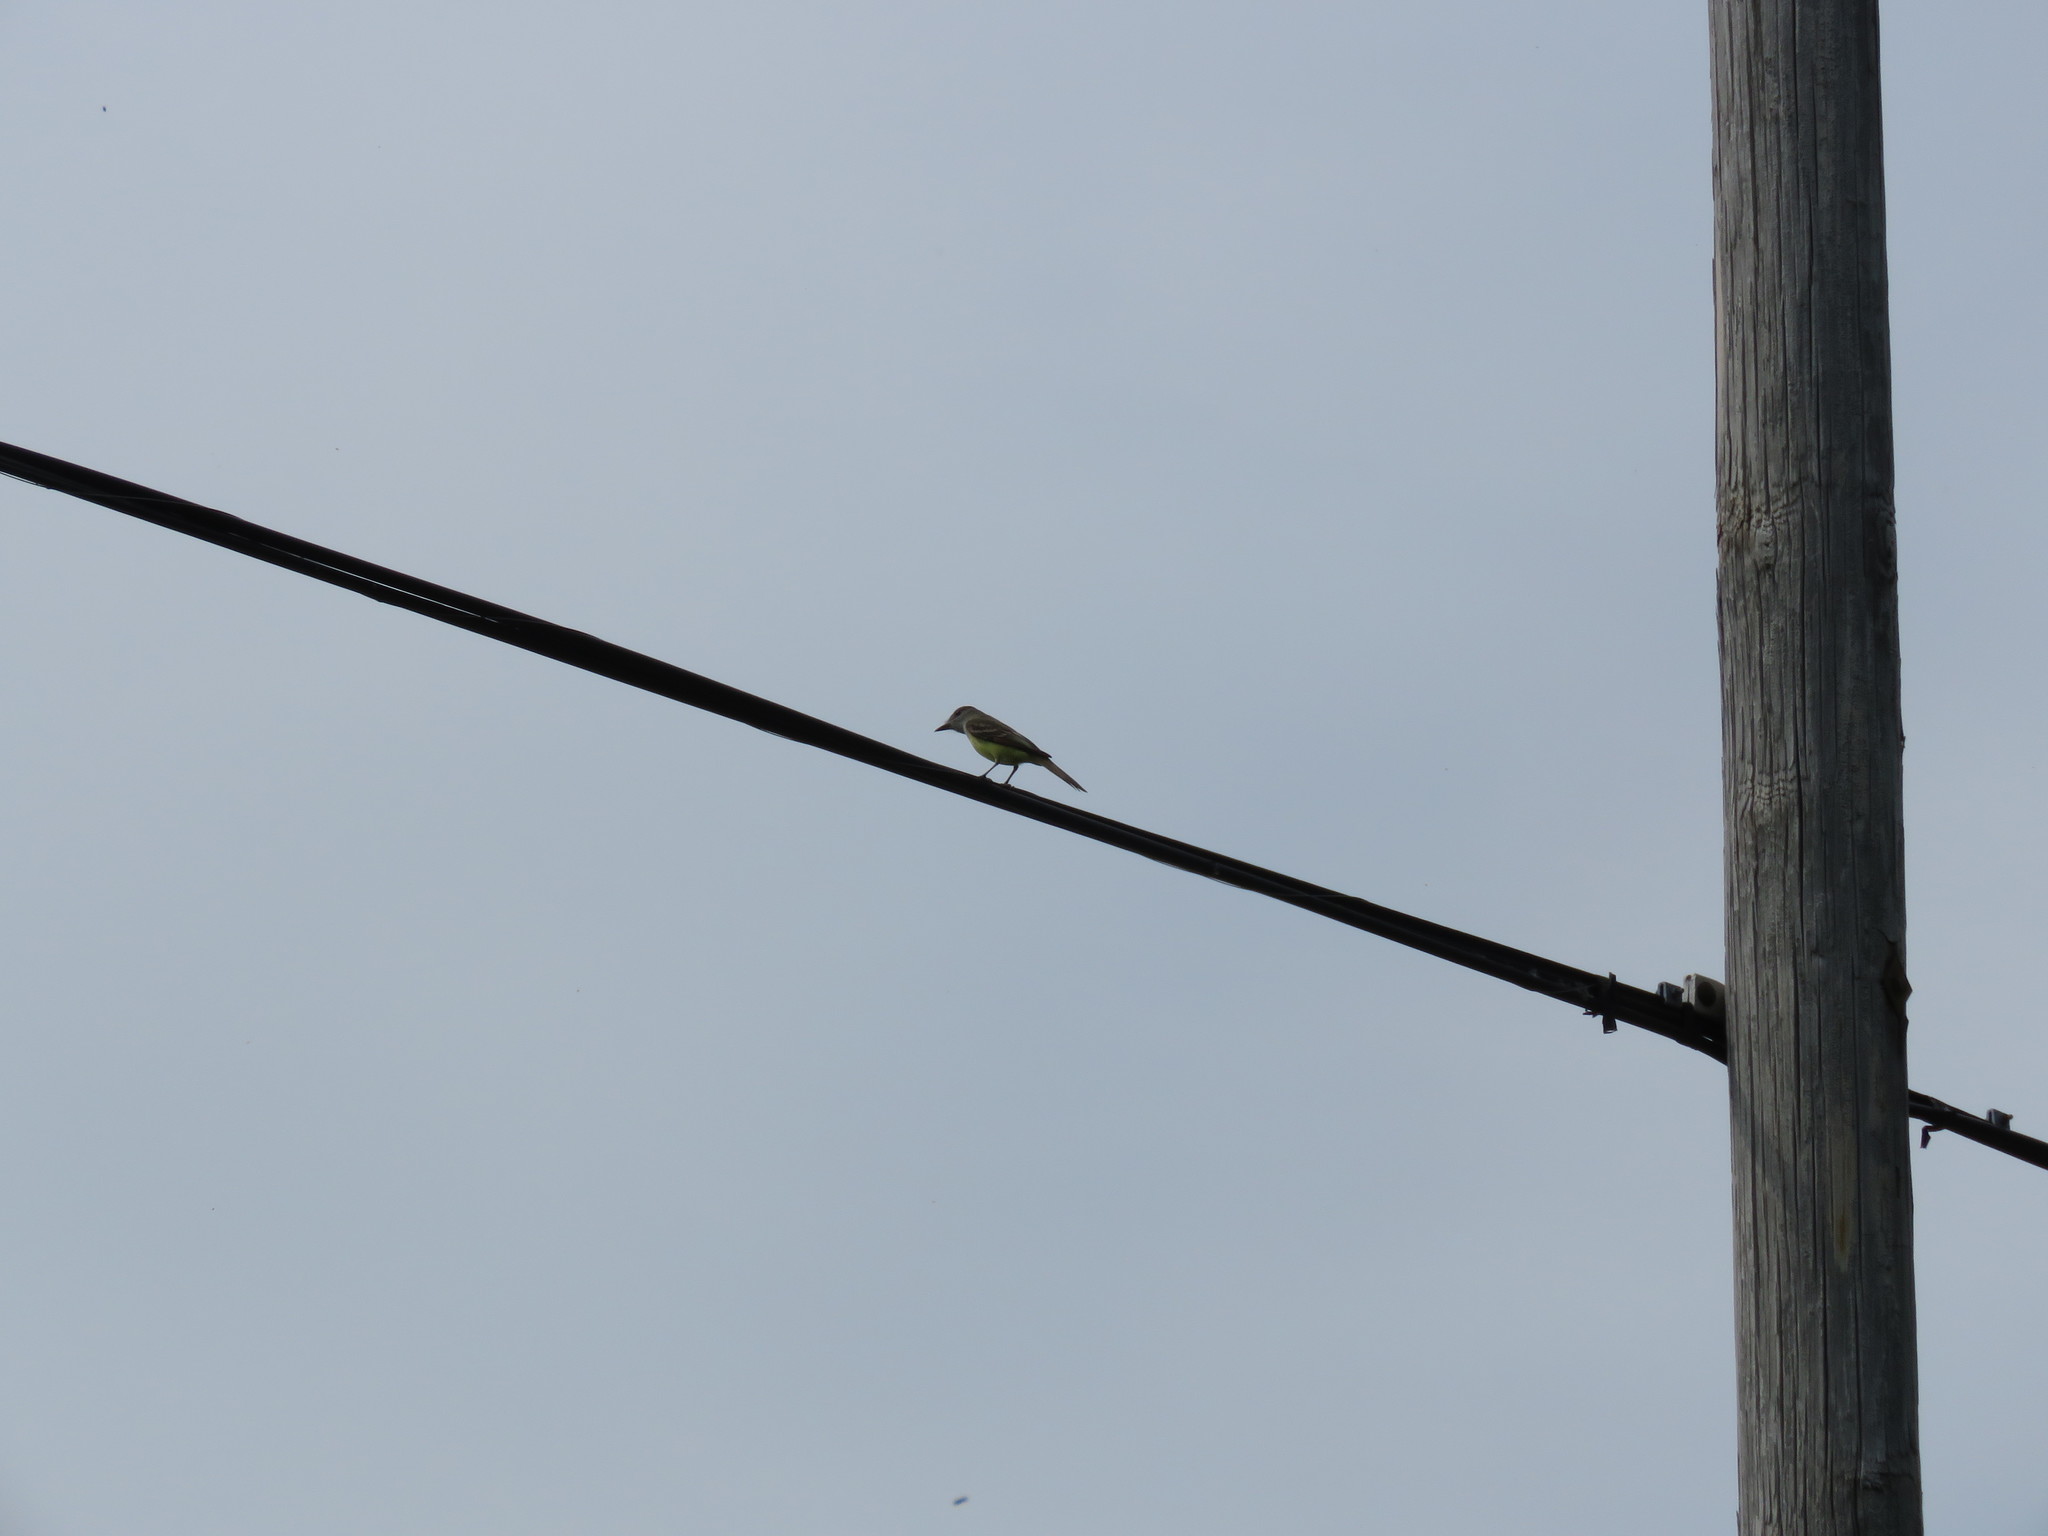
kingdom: Animalia
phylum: Chordata
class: Aves
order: Passeriformes
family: Tyrannidae
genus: Myiarchus
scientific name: Myiarchus crinitus
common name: Great crested flycatcher
